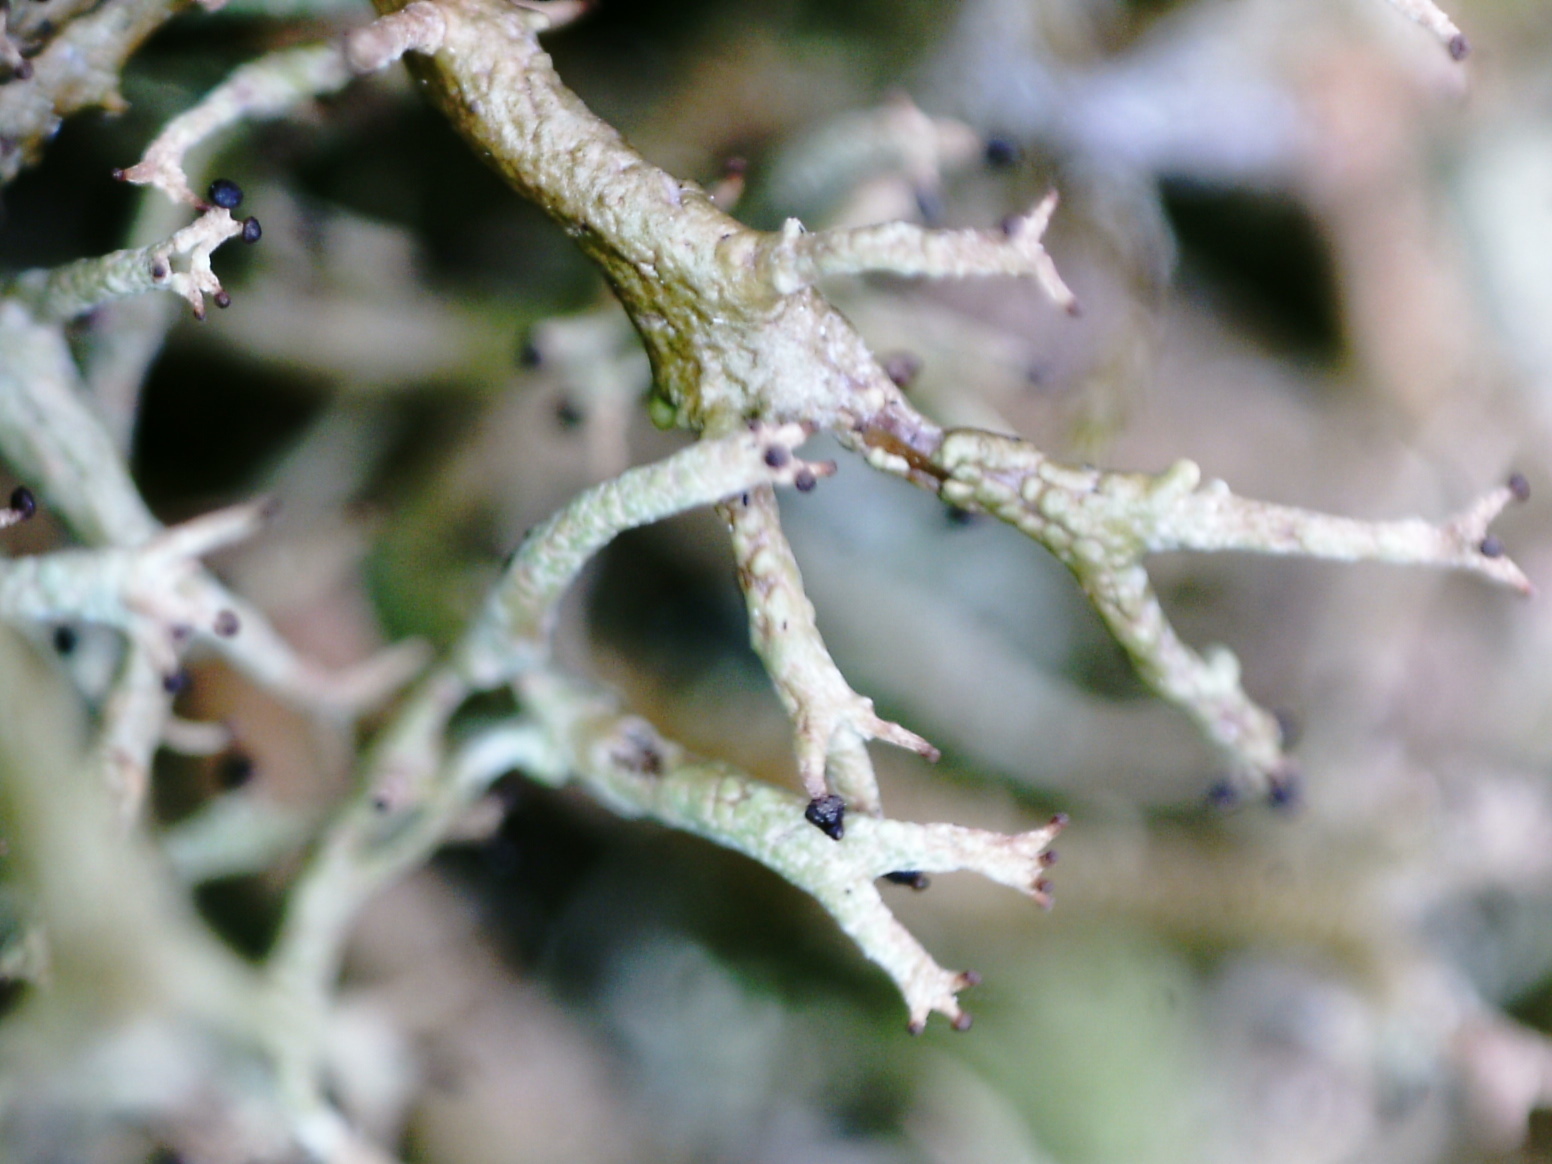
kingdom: Fungi
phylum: Ascomycota
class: Lecanoromycetes
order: Lecanorales
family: Cladoniaceae
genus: Cladonia
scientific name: Cladonia furcata
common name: Many-forked cladonia
